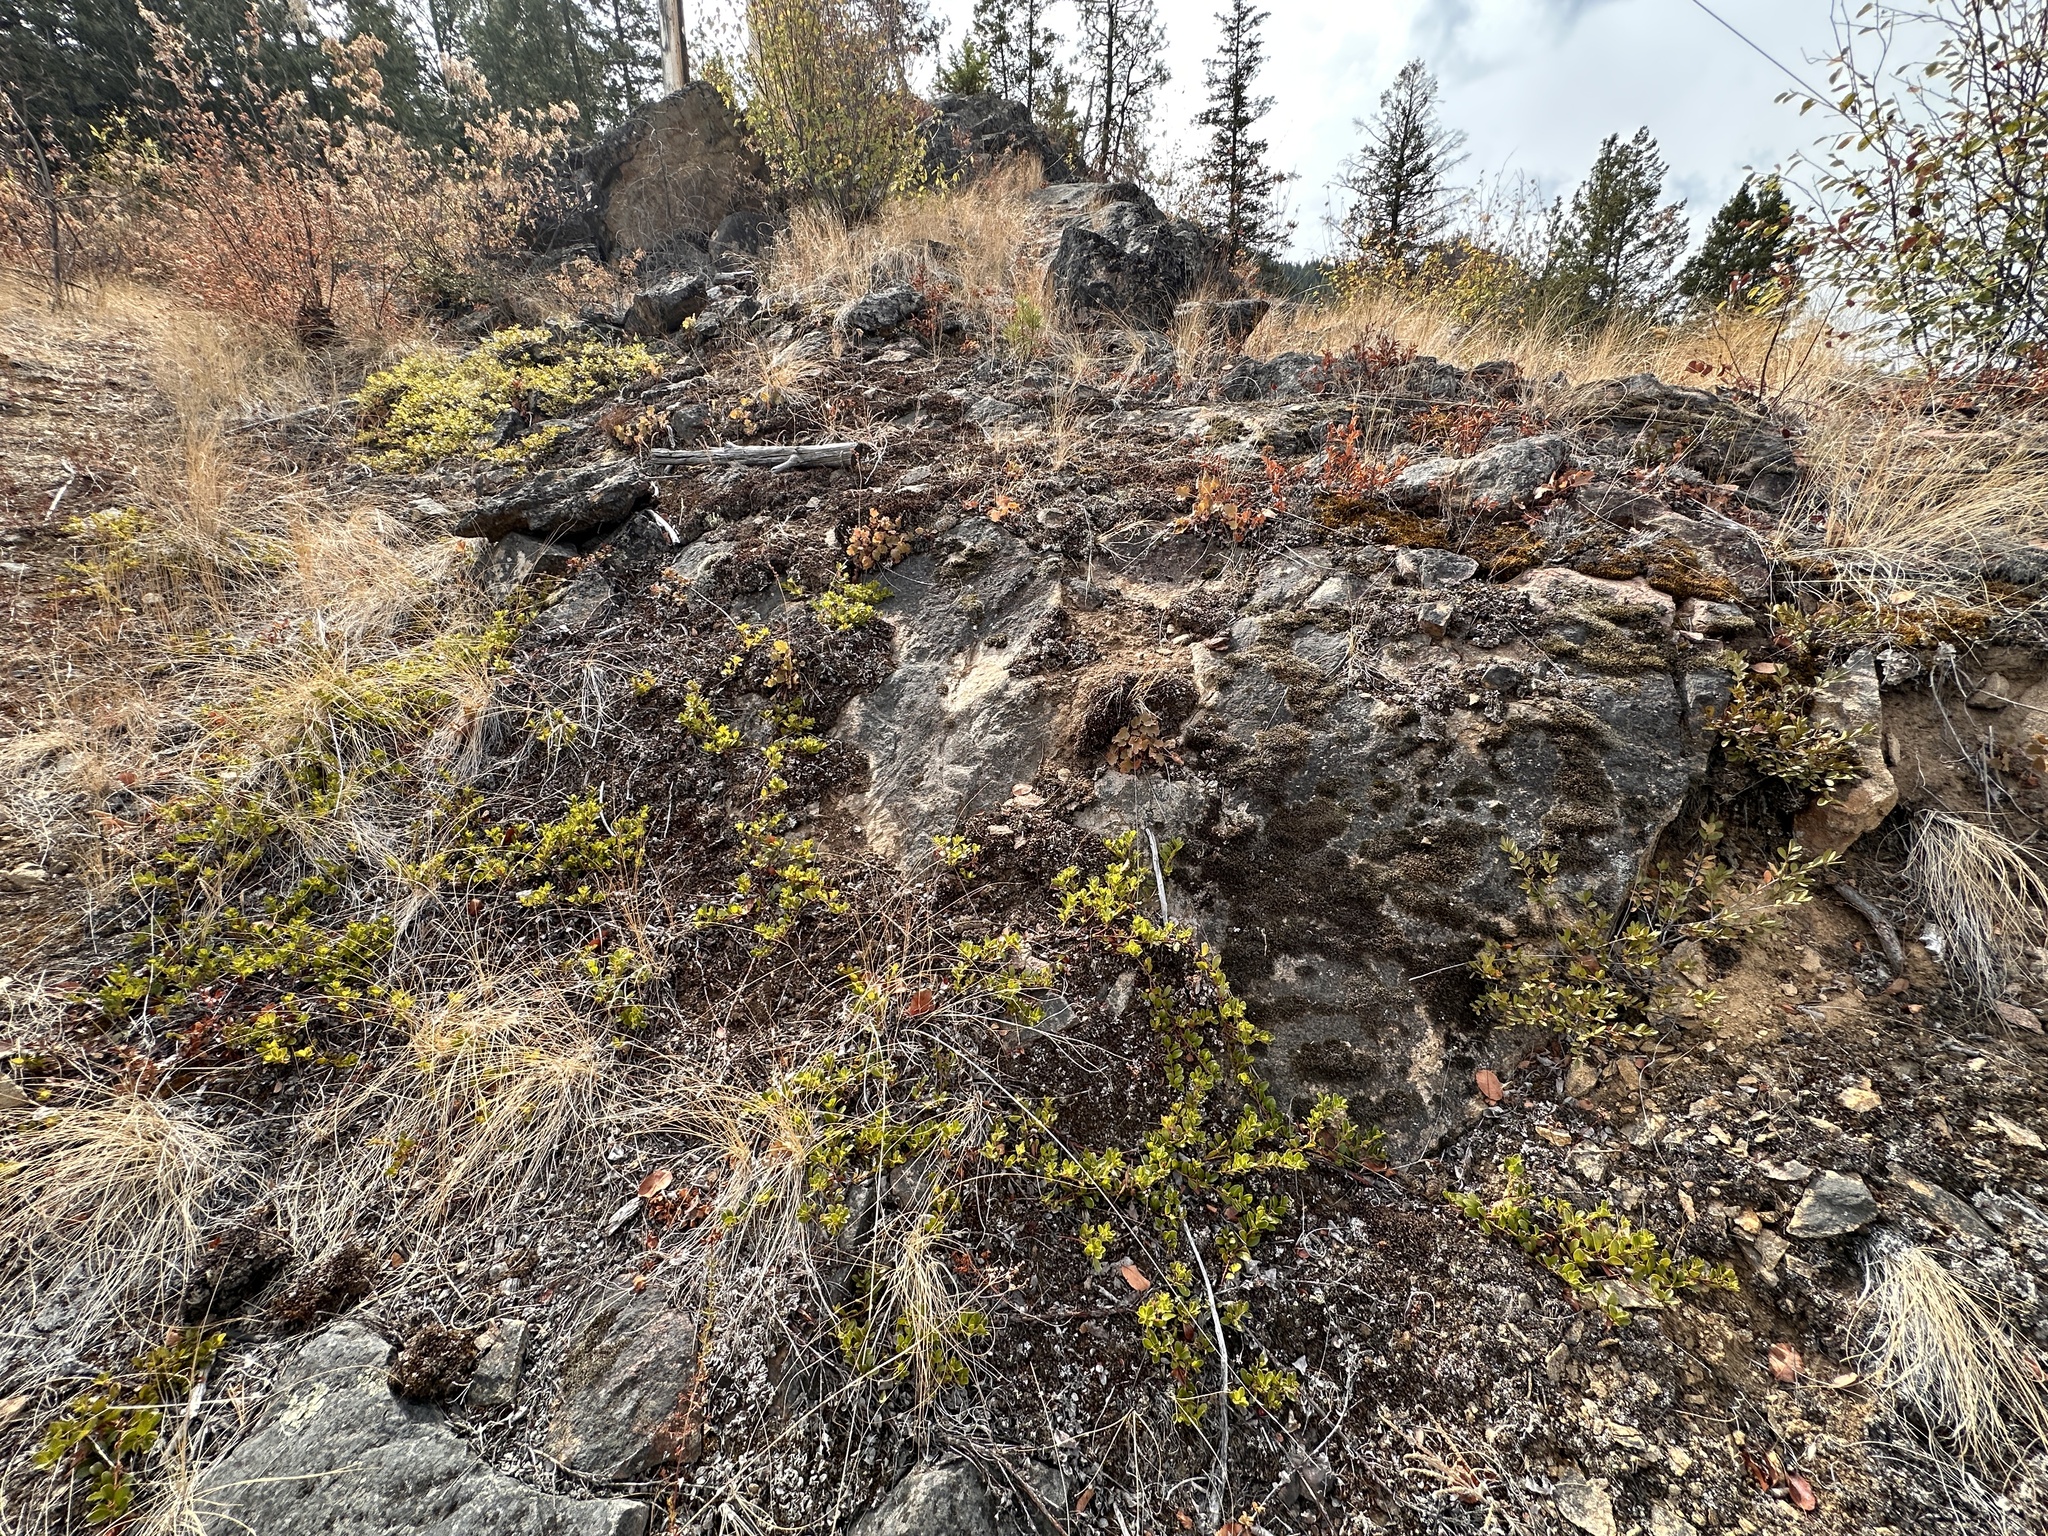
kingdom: Plantae
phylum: Tracheophyta
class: Magnoliopsida
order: Ericales
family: Ericaceae
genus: Arctostaphylos
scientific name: Arctostaphylos uva-ursi
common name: Bearberry
